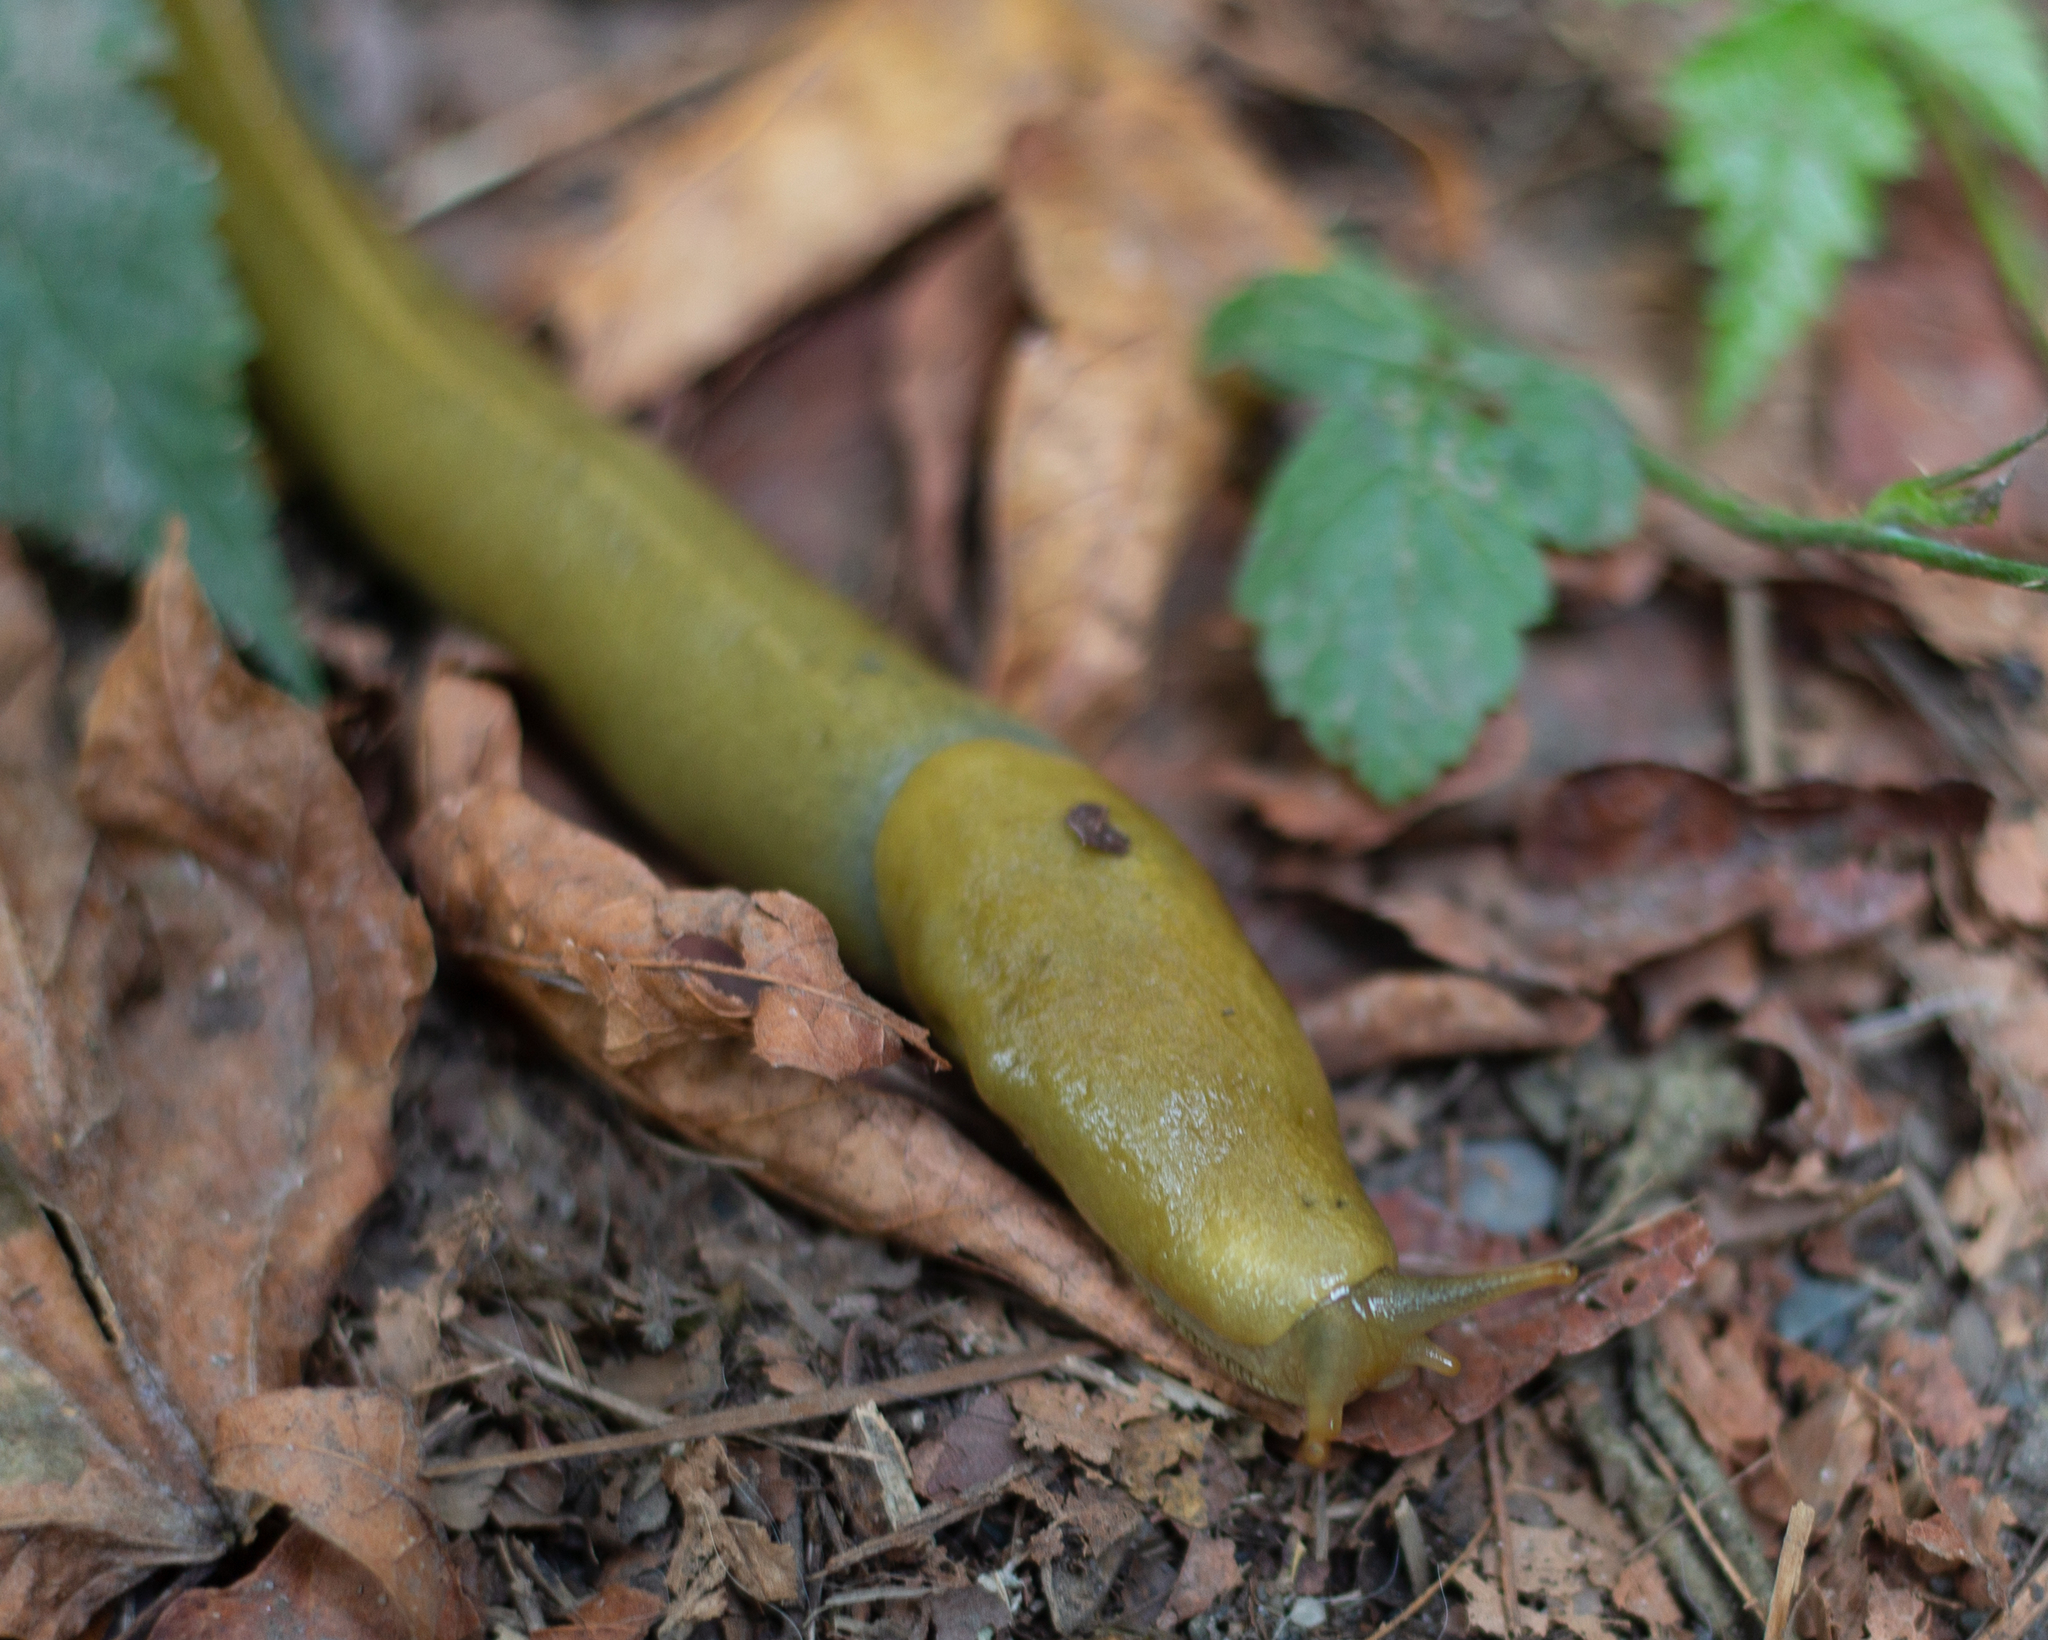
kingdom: Animalia
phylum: Mollusca
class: Gastropoda
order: Stylommatophora
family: Ariolimacidae
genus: Ariolimax
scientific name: Ariolimax columbianus
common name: Pacific banana slug
